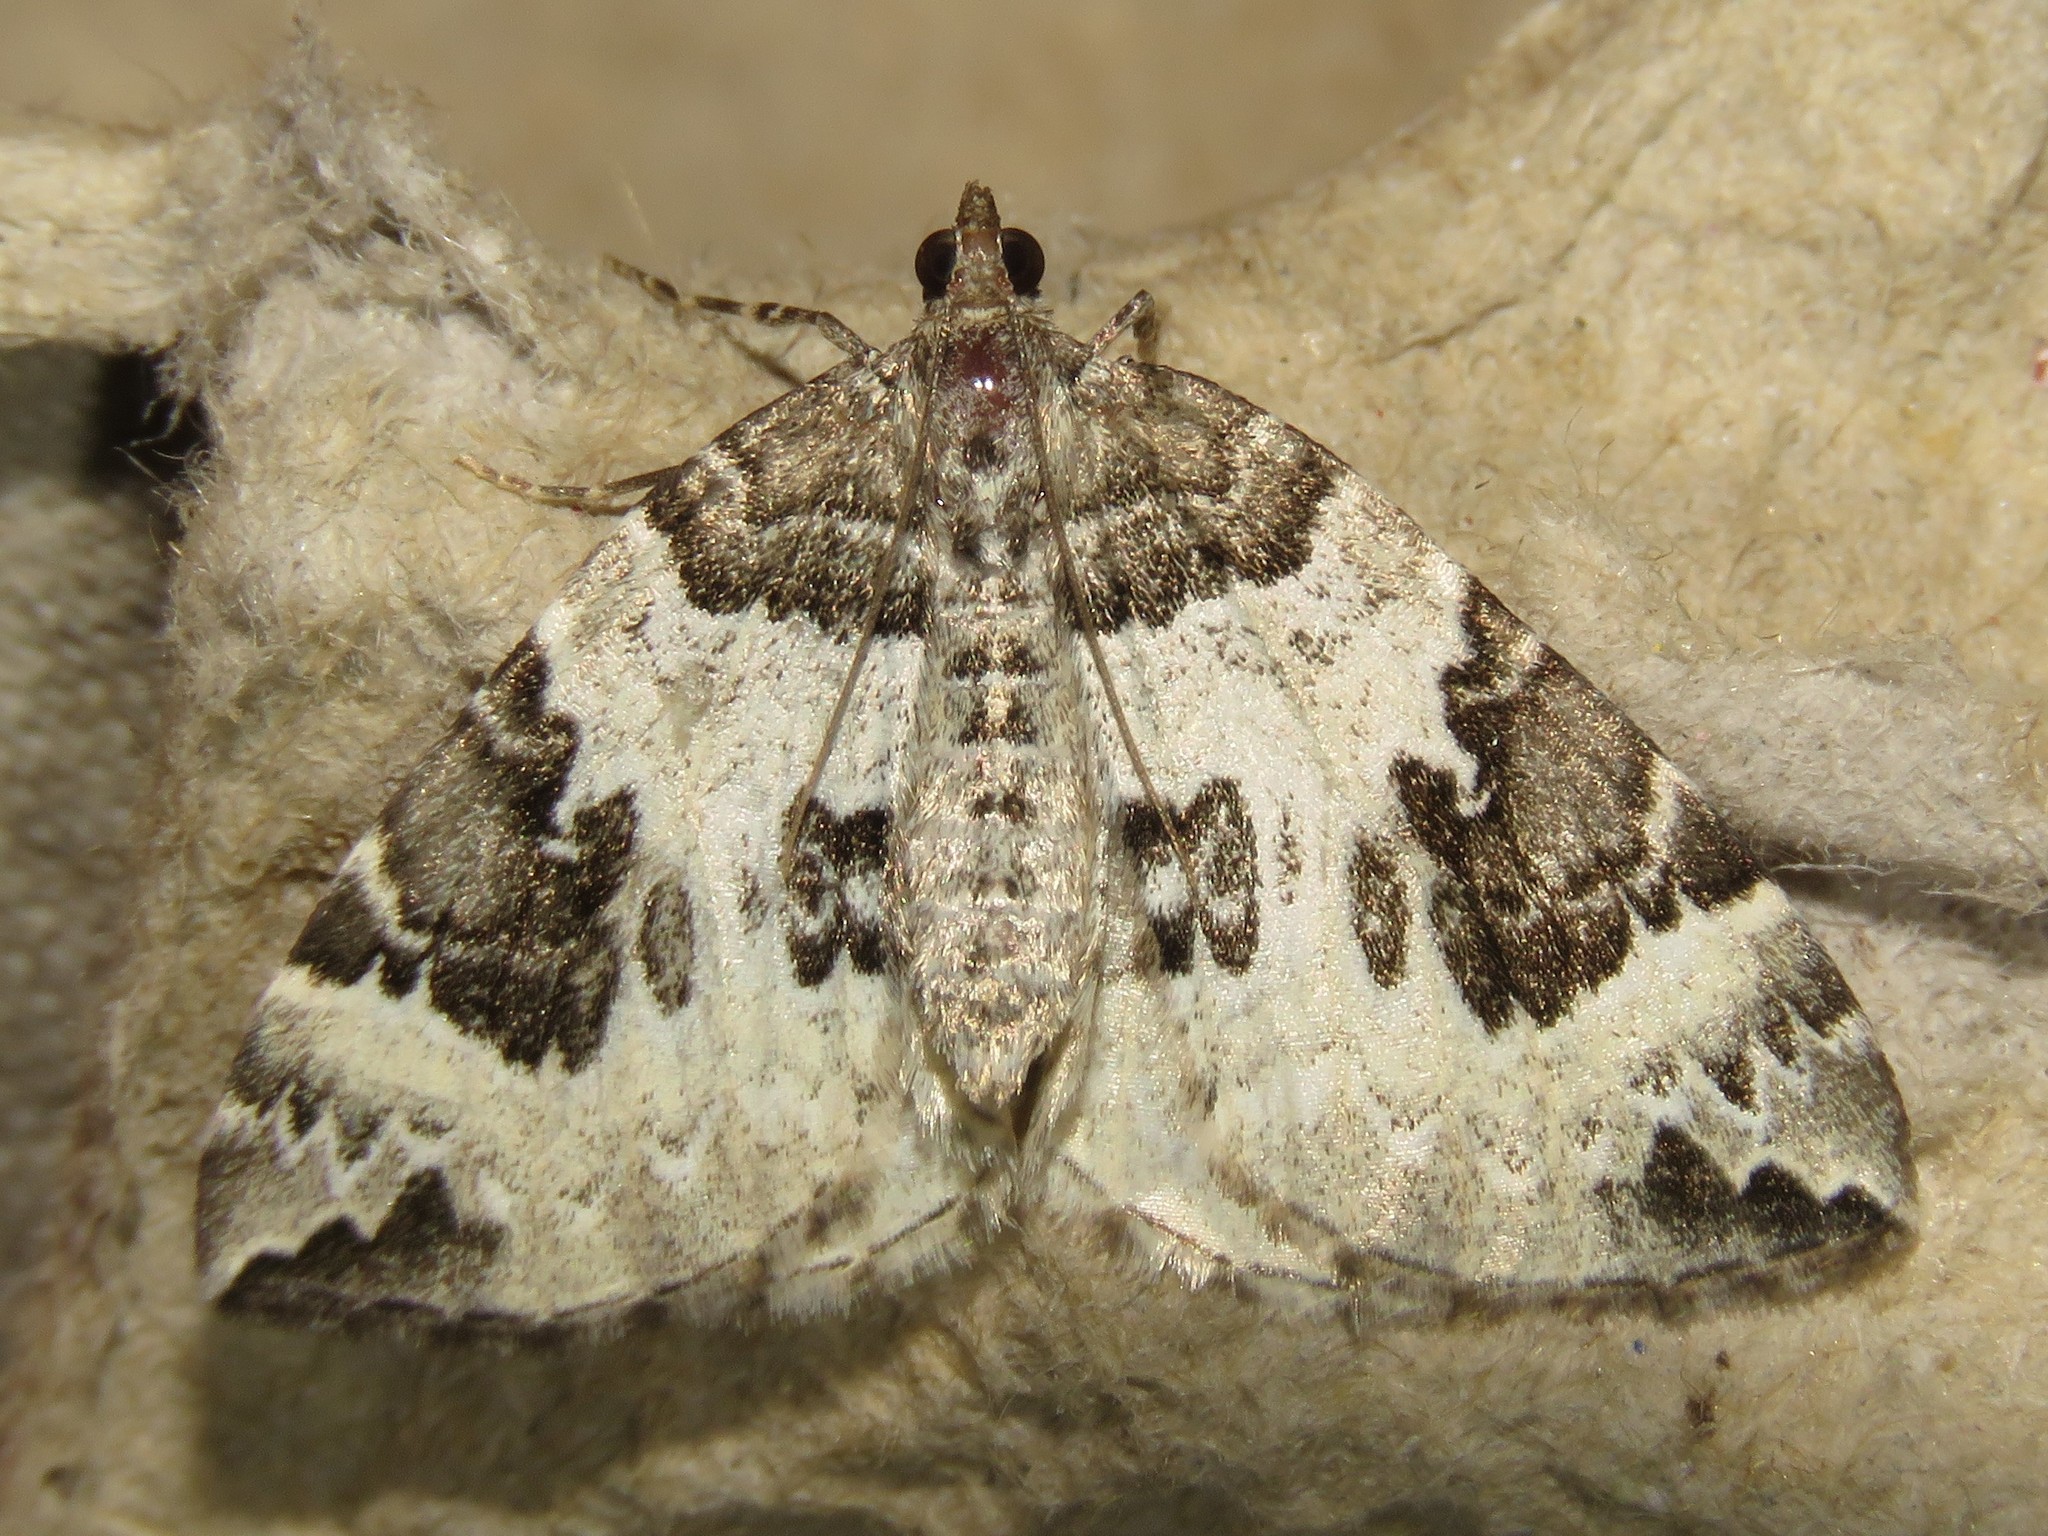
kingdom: Animalia
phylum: Arthropoda
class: Insecta
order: Lepidoptera
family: Geometridae
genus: Eulithis
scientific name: Eulithis explanata
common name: White eulithis
